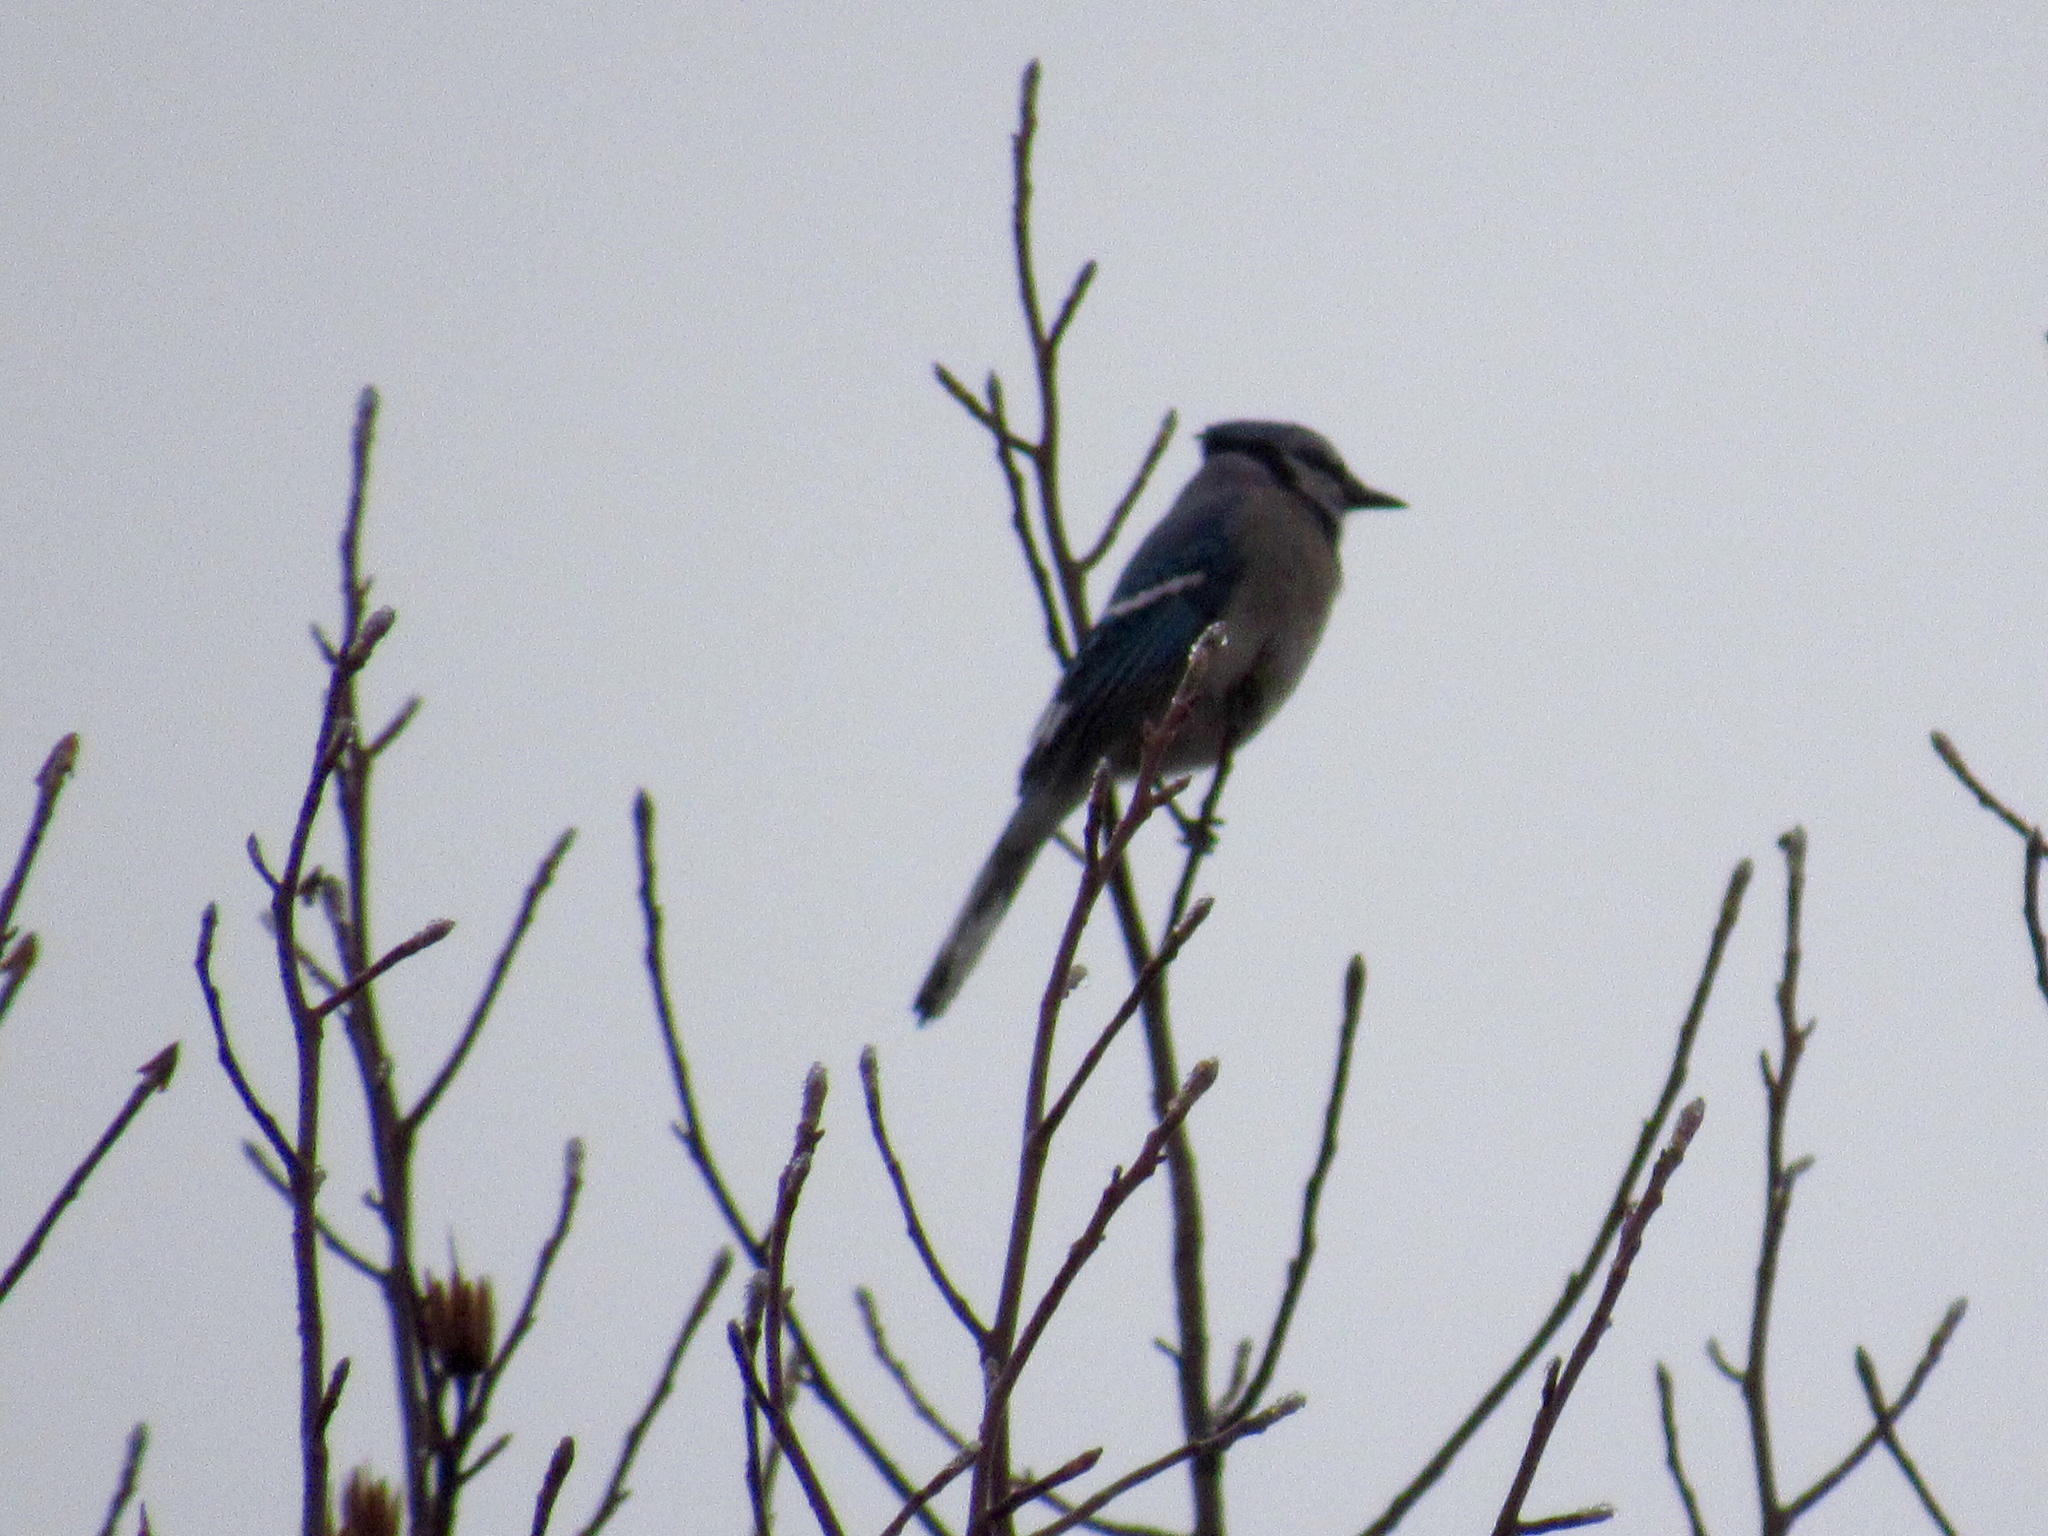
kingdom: Animalia
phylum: Chordata
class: Aves
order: Passeriformes
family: Corvidae
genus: Cyanocitta
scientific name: Cyanocitta cristata
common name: Blue jay
